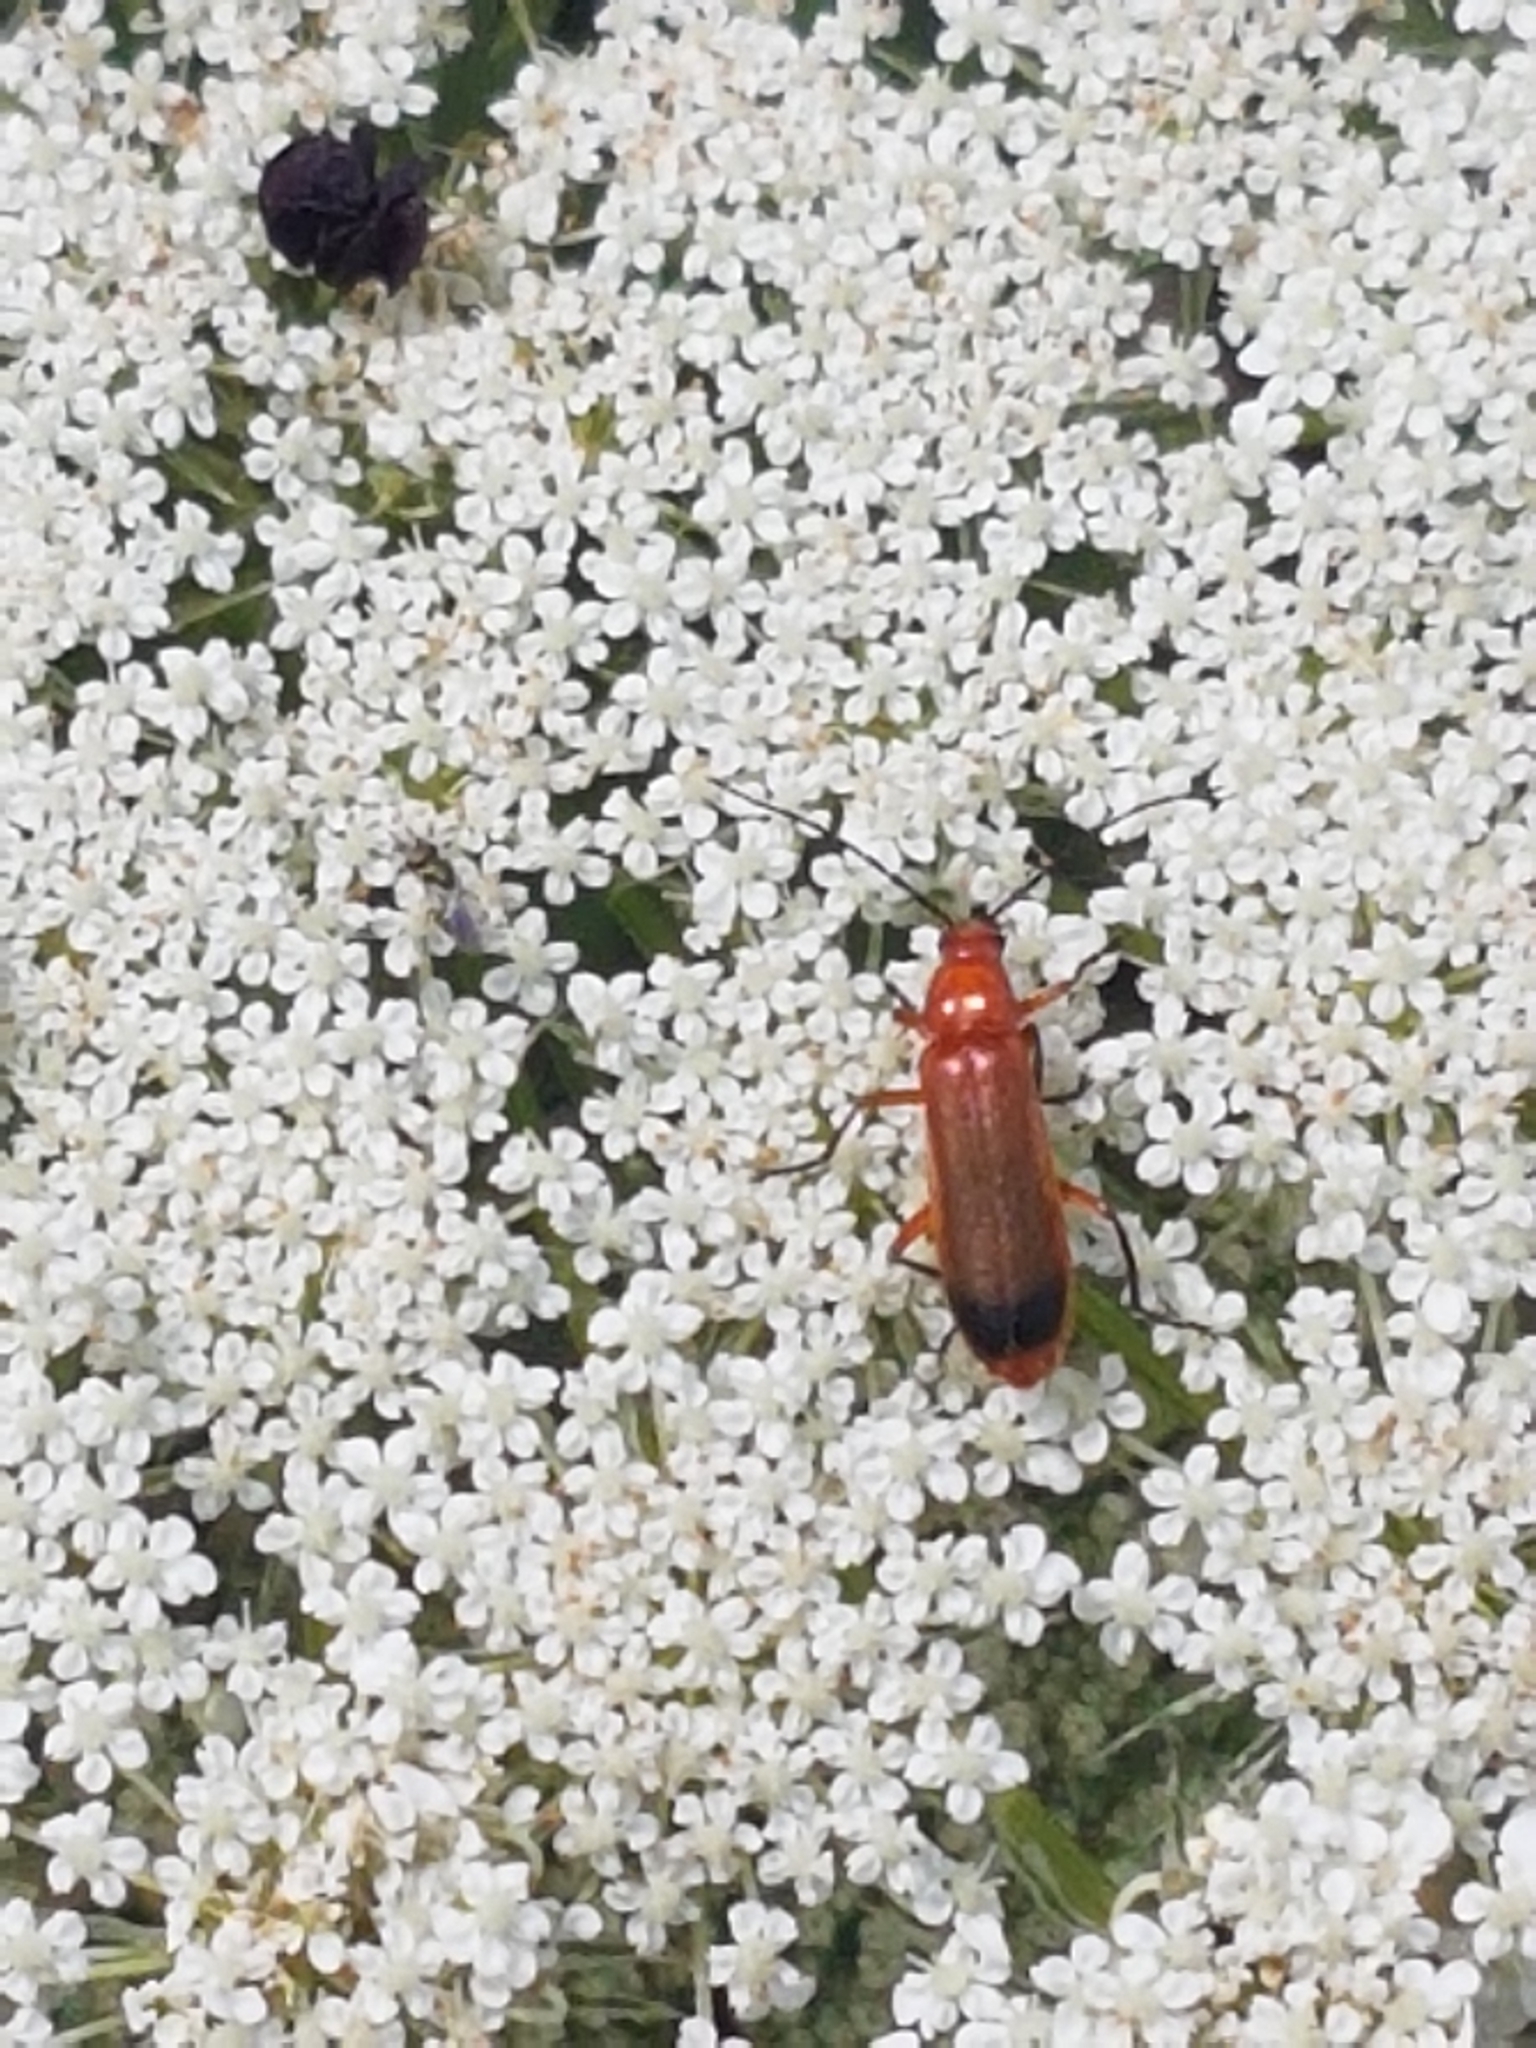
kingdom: Animalia
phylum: Arthropoda
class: Insecta
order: Coleoptera
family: Cantharidae
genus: Rhagonycha
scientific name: Rhagonycha fulva
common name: Common red soldier beetle
